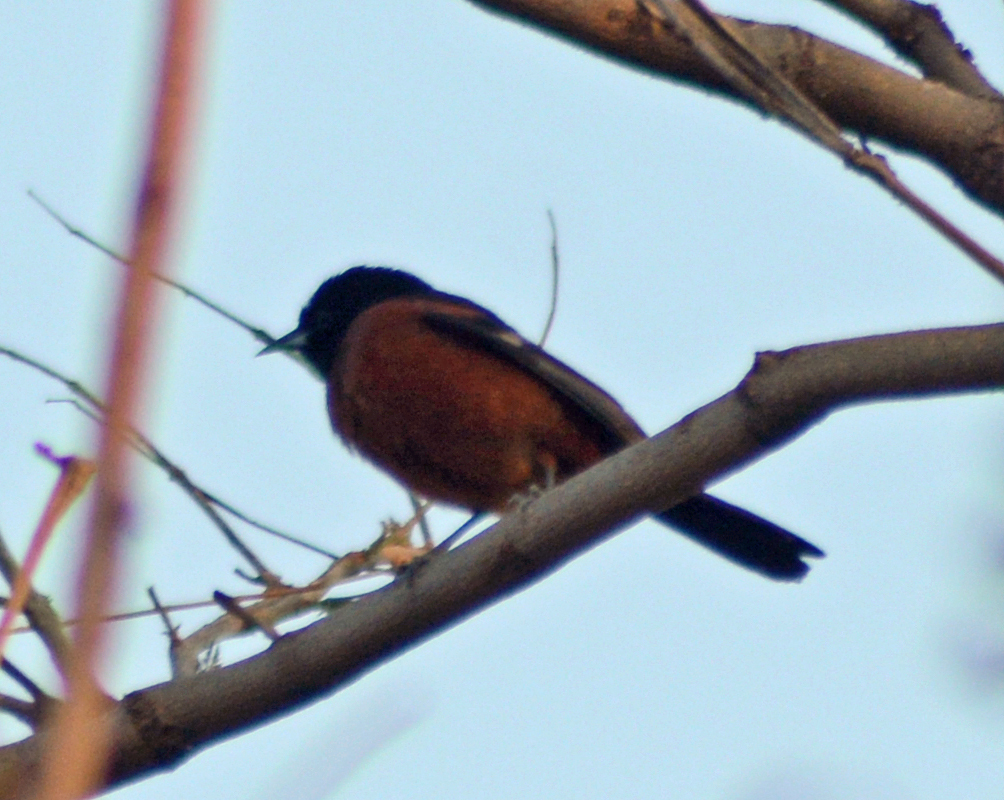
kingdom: Animalia
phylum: Chordata
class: Aves
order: Passeriformes
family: Icteridae
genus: Icterus
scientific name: Icterus spurius
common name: Orchard oriole
